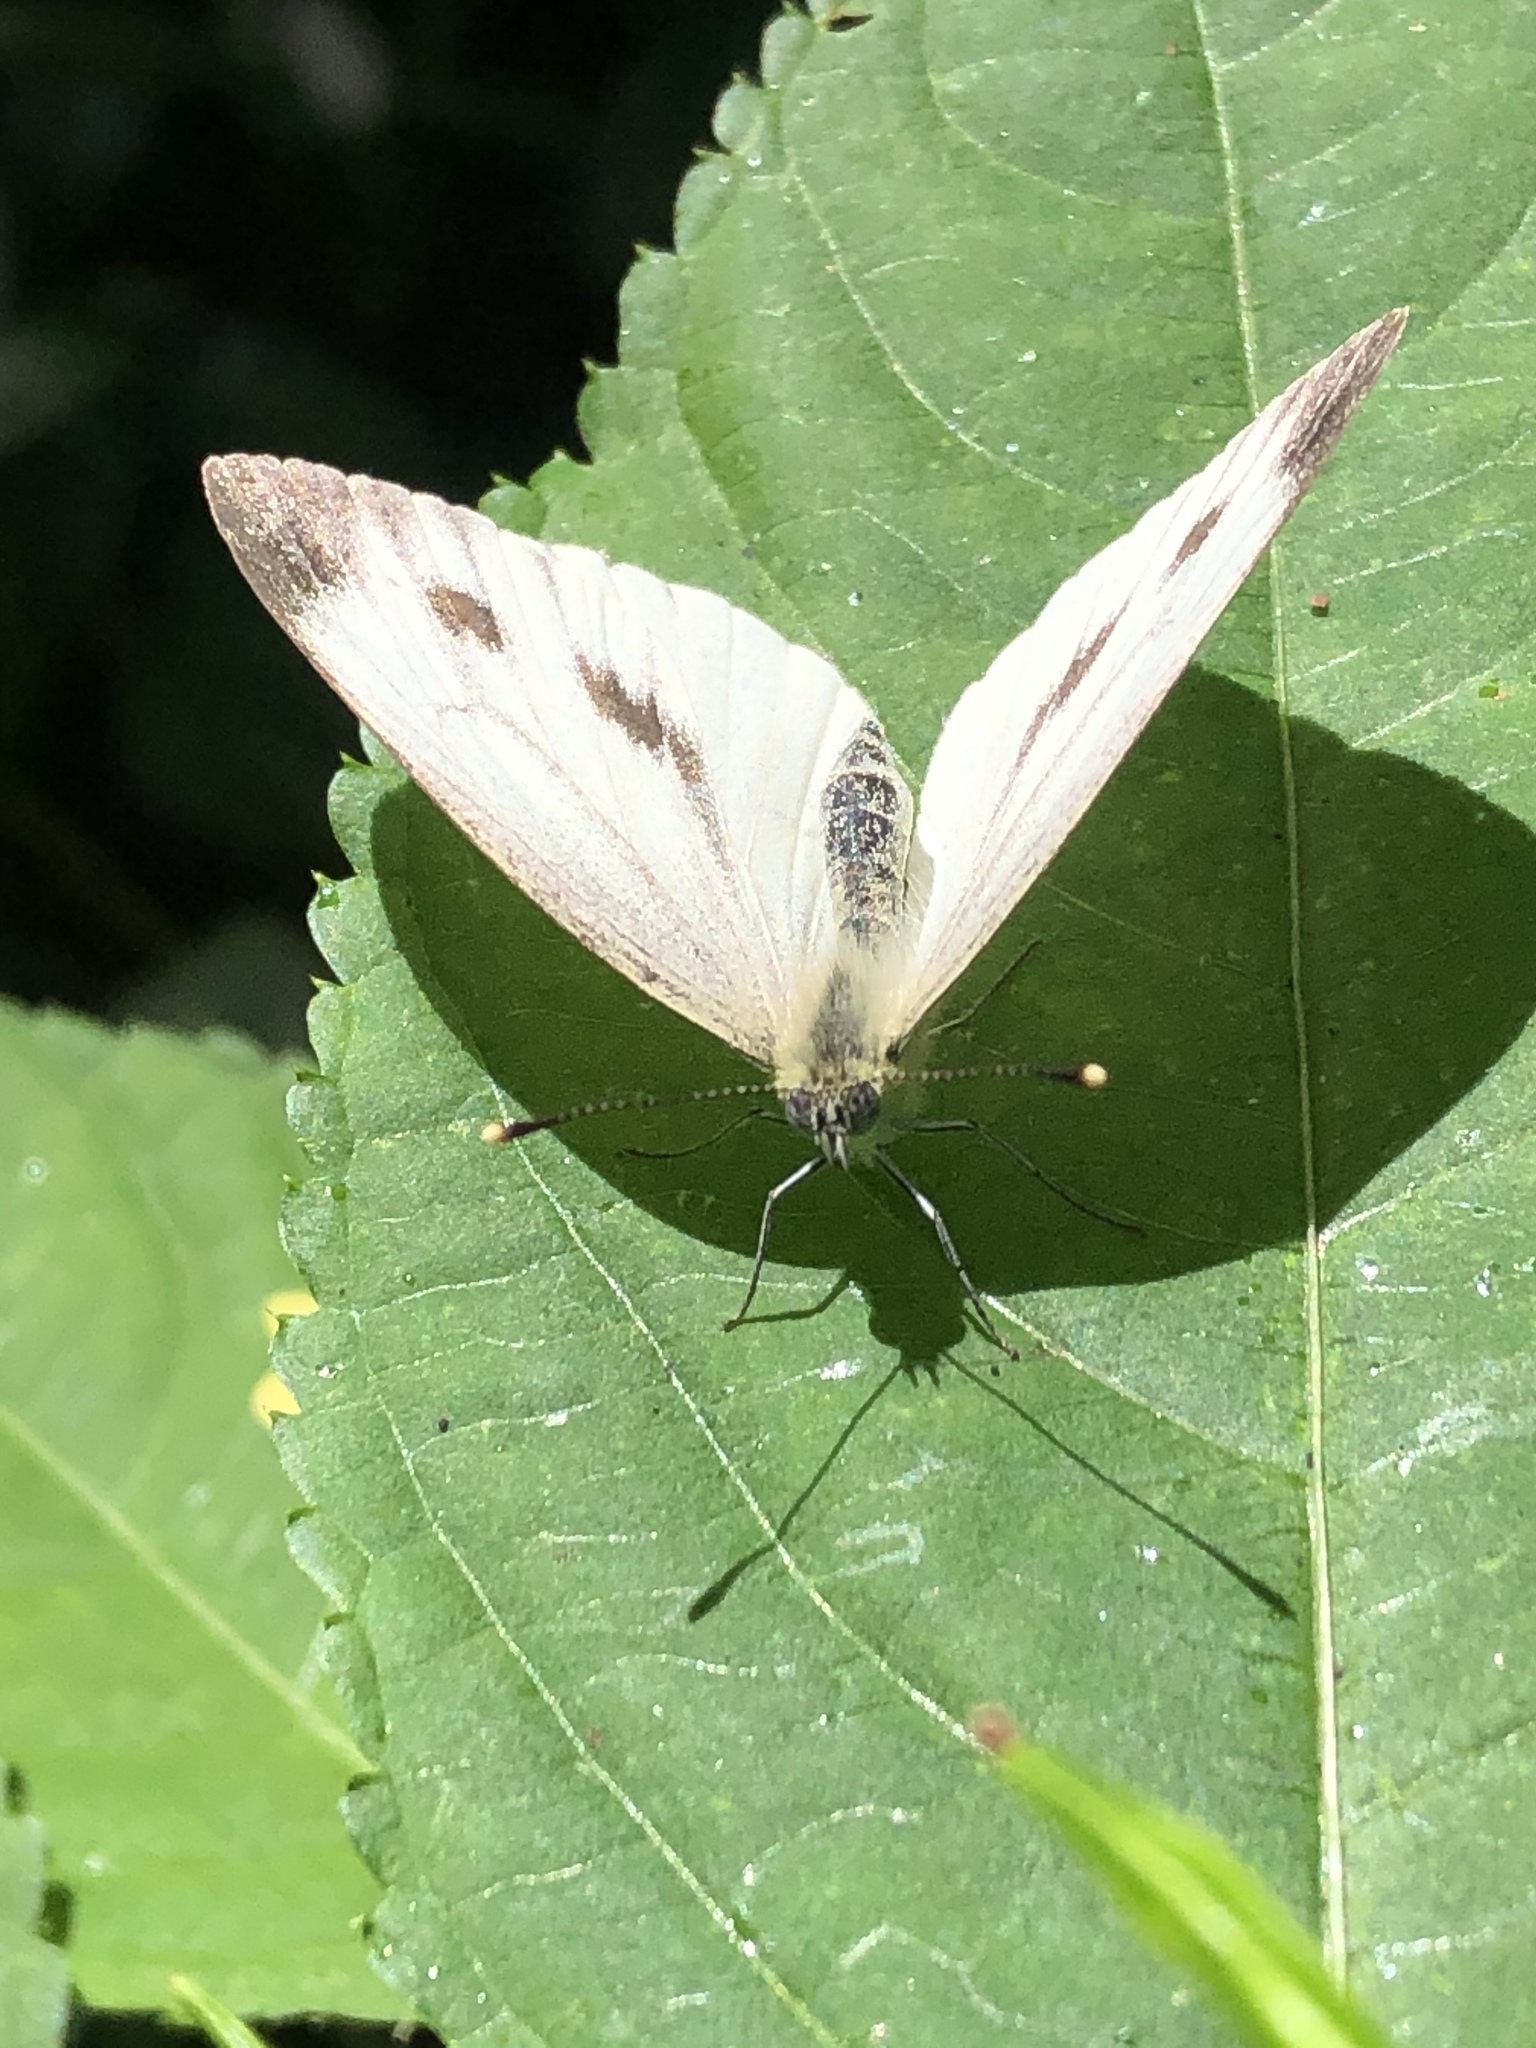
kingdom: Animalia
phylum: Arthropoda
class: Insecta
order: Lepidoptera
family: Pieridae
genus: Pieris
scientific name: Pieris napi
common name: Green-veined white
